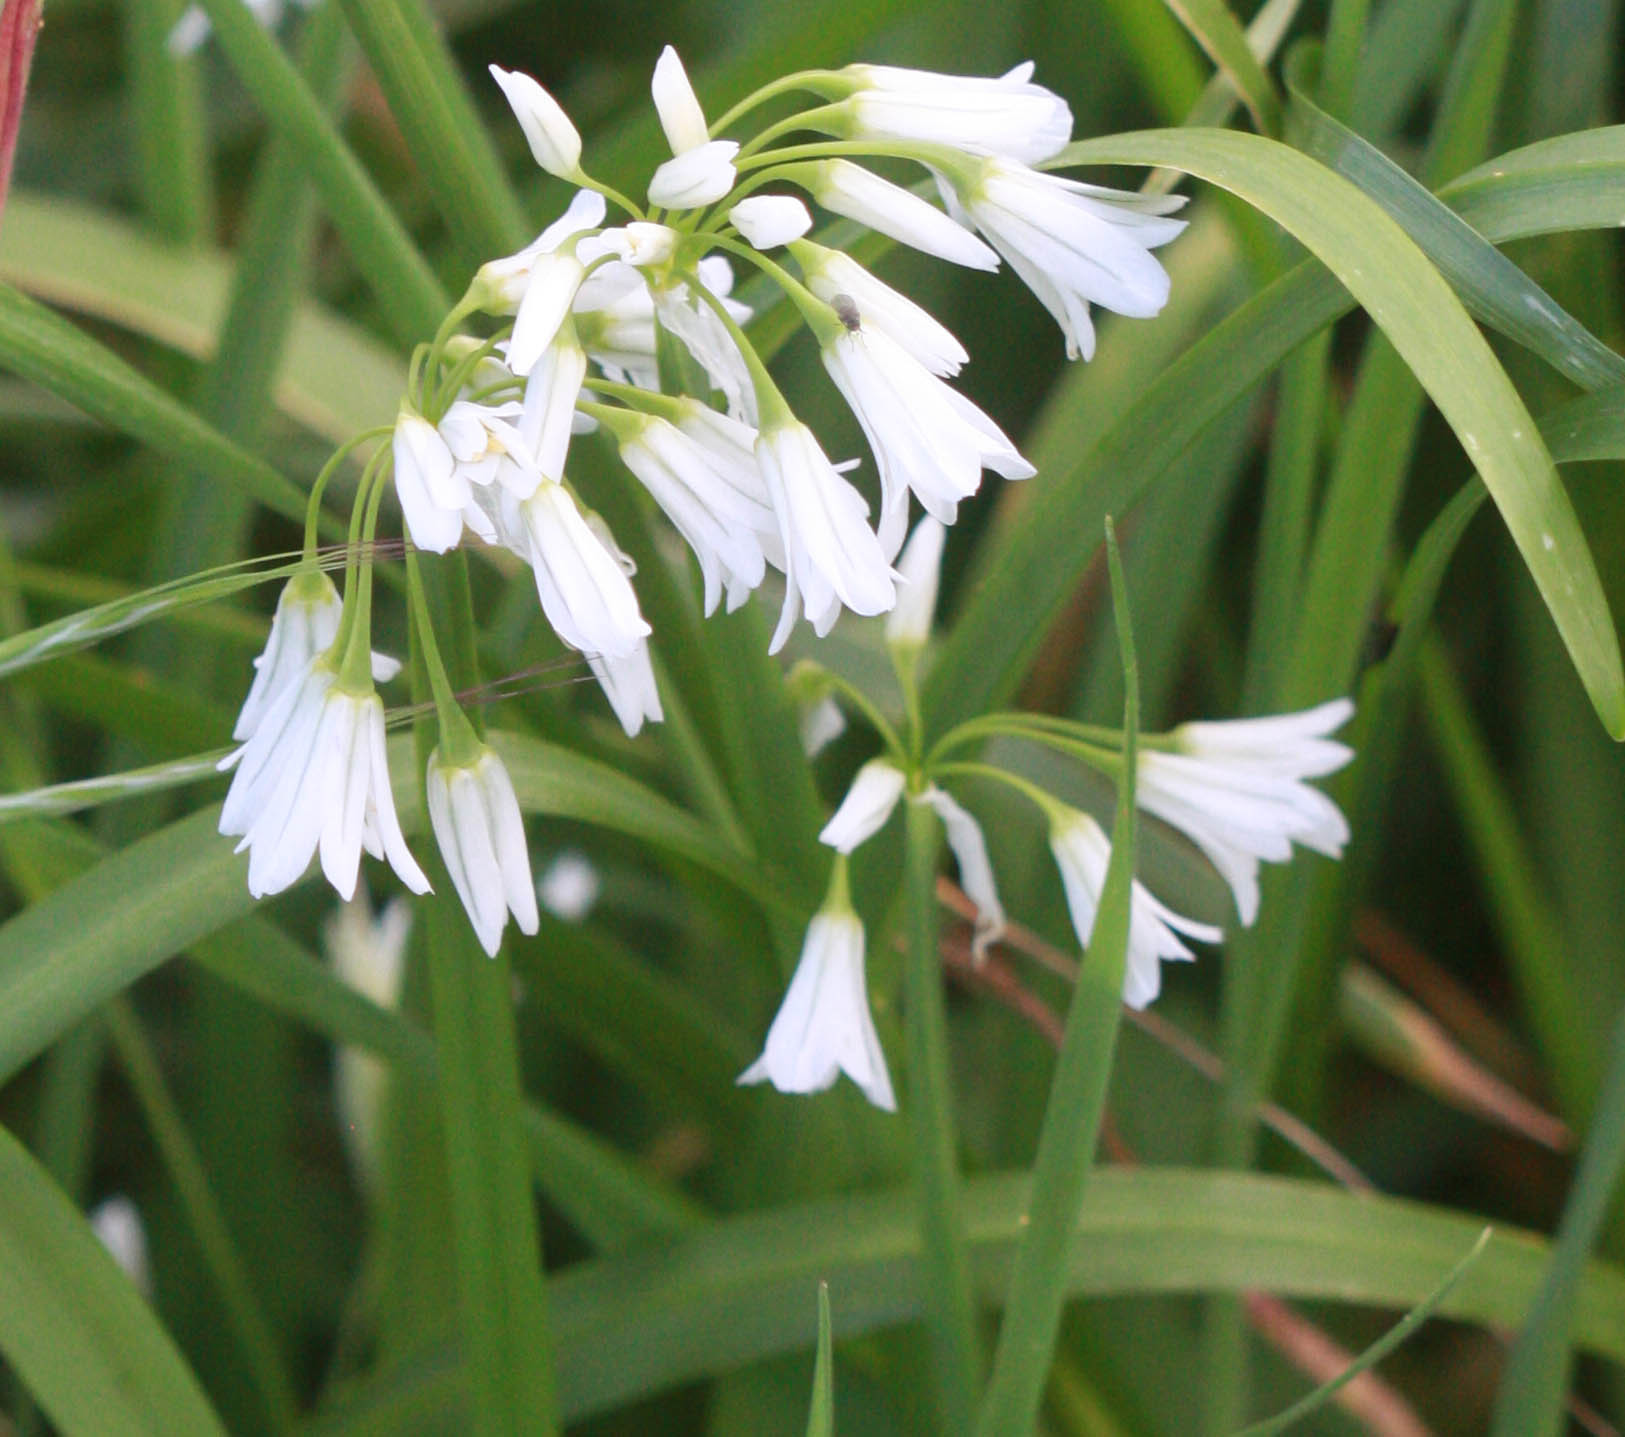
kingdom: Plantae
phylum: Tracheophyta
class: Liliopsida
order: Asparagales
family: Amaryllidaceae
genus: Allium
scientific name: Allium triquetrum
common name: Three-cornered garlic
